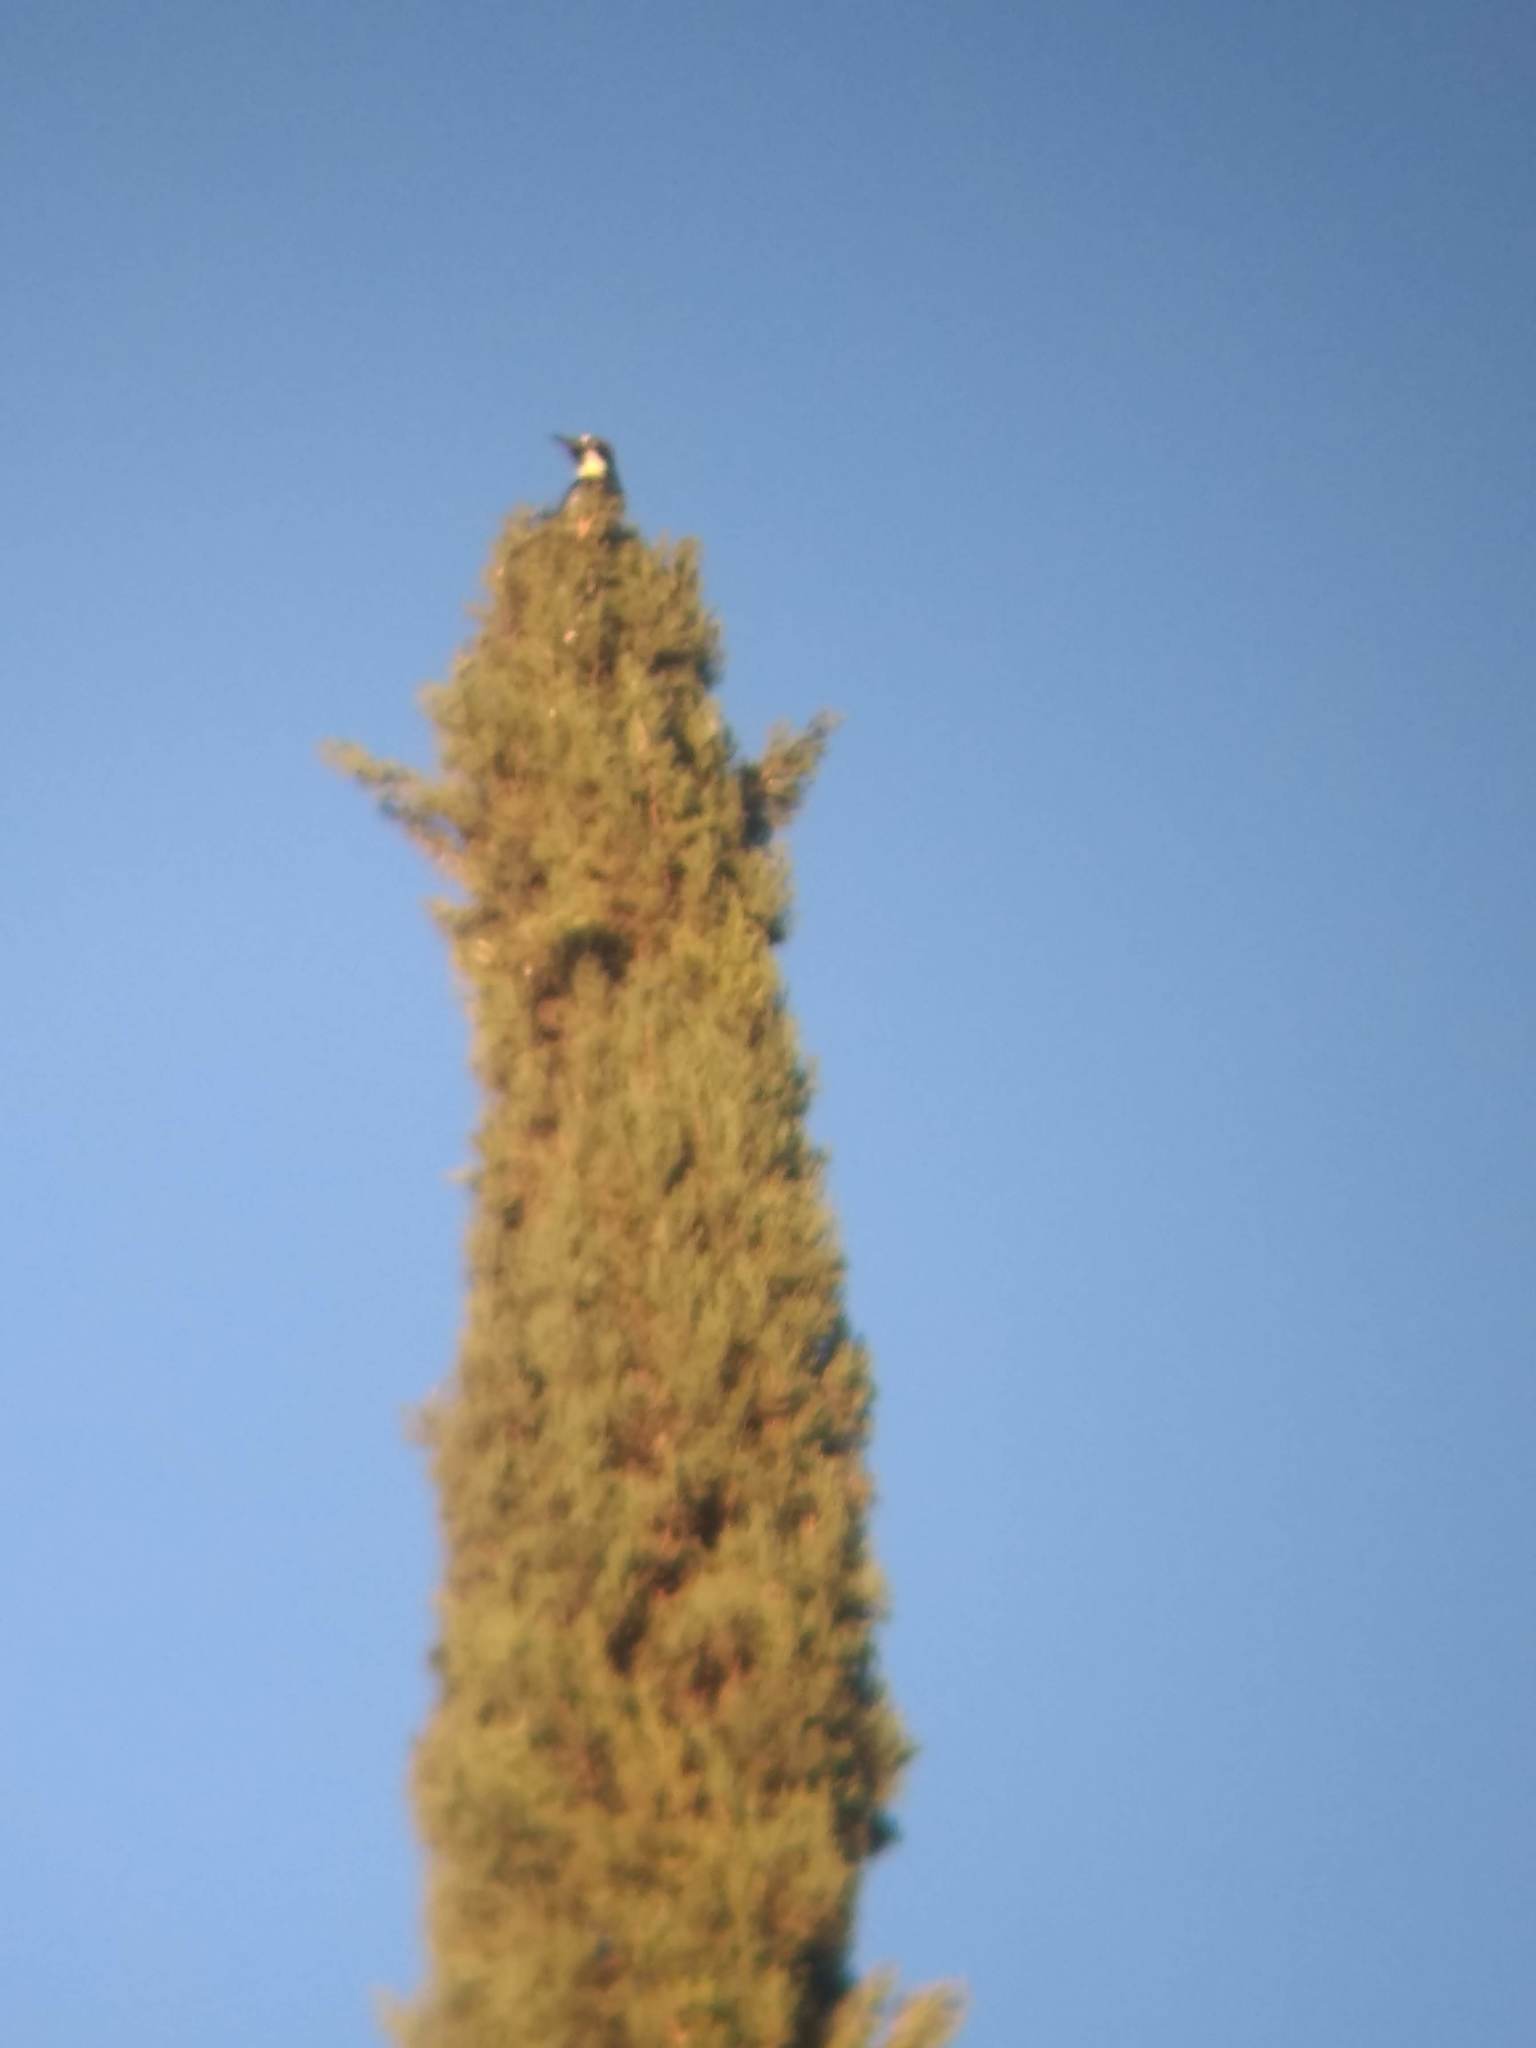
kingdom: Animalia
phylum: Chordata
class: Aves
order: Piciformes
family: Picidae
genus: Melanerpes
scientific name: Melanerpes formicivorus
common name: Acorn woodpecker
